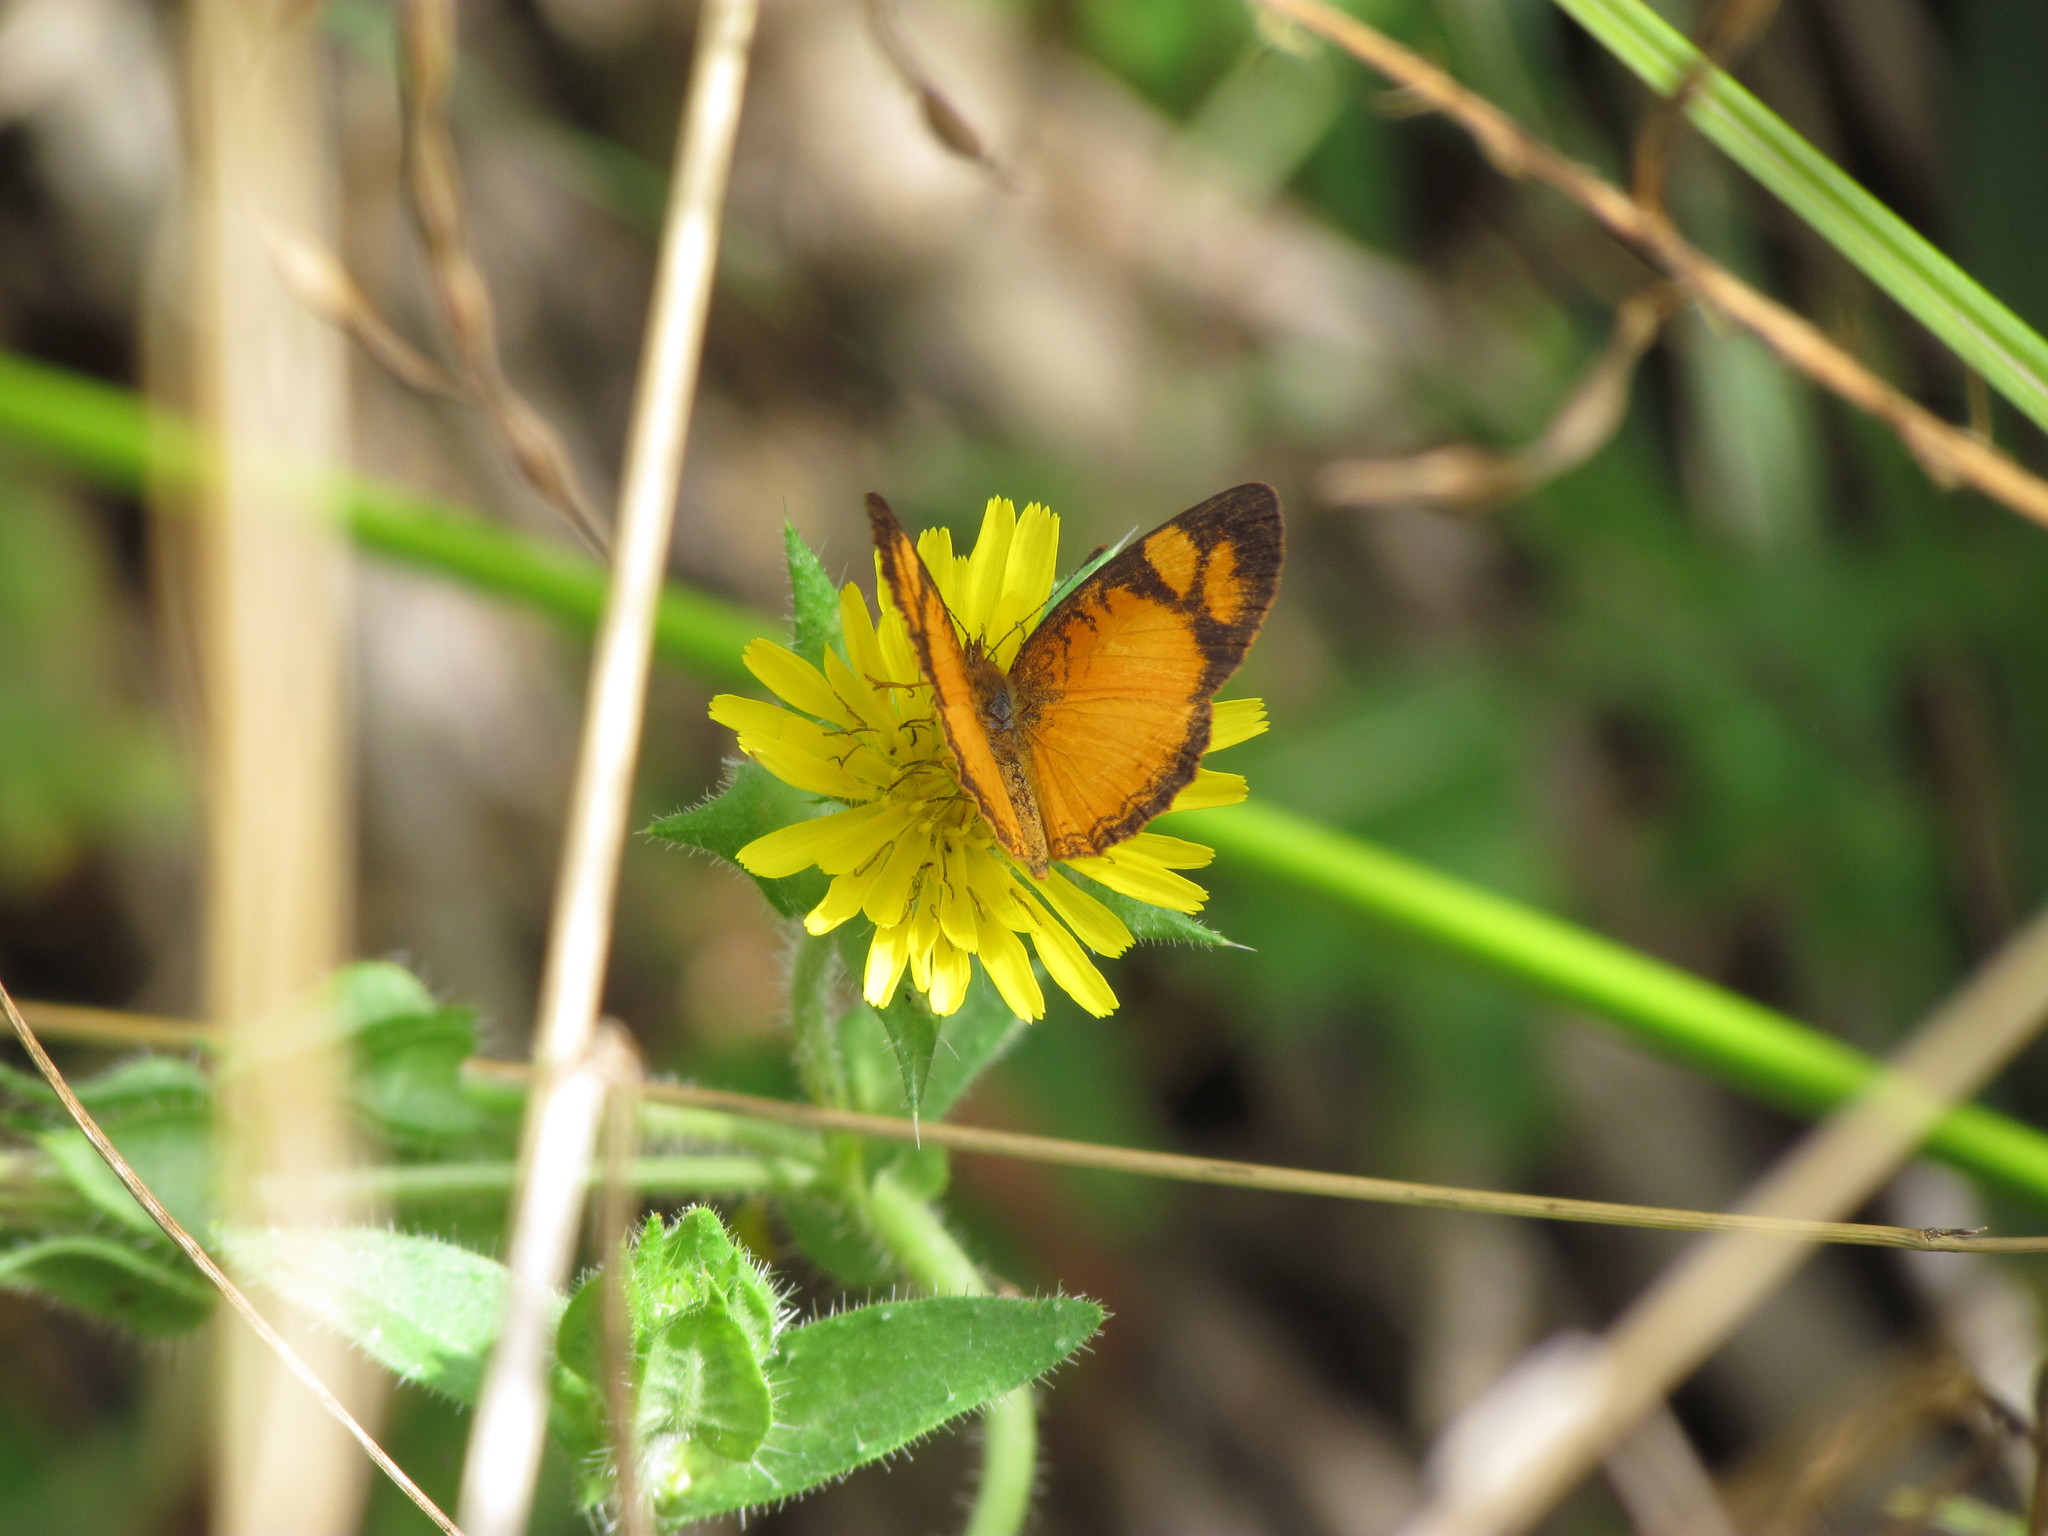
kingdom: Animalia
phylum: Arthropoda
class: Insecta
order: Lepidoptera
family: Nymphalidae
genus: Tegosa
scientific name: Tegosa claudina
